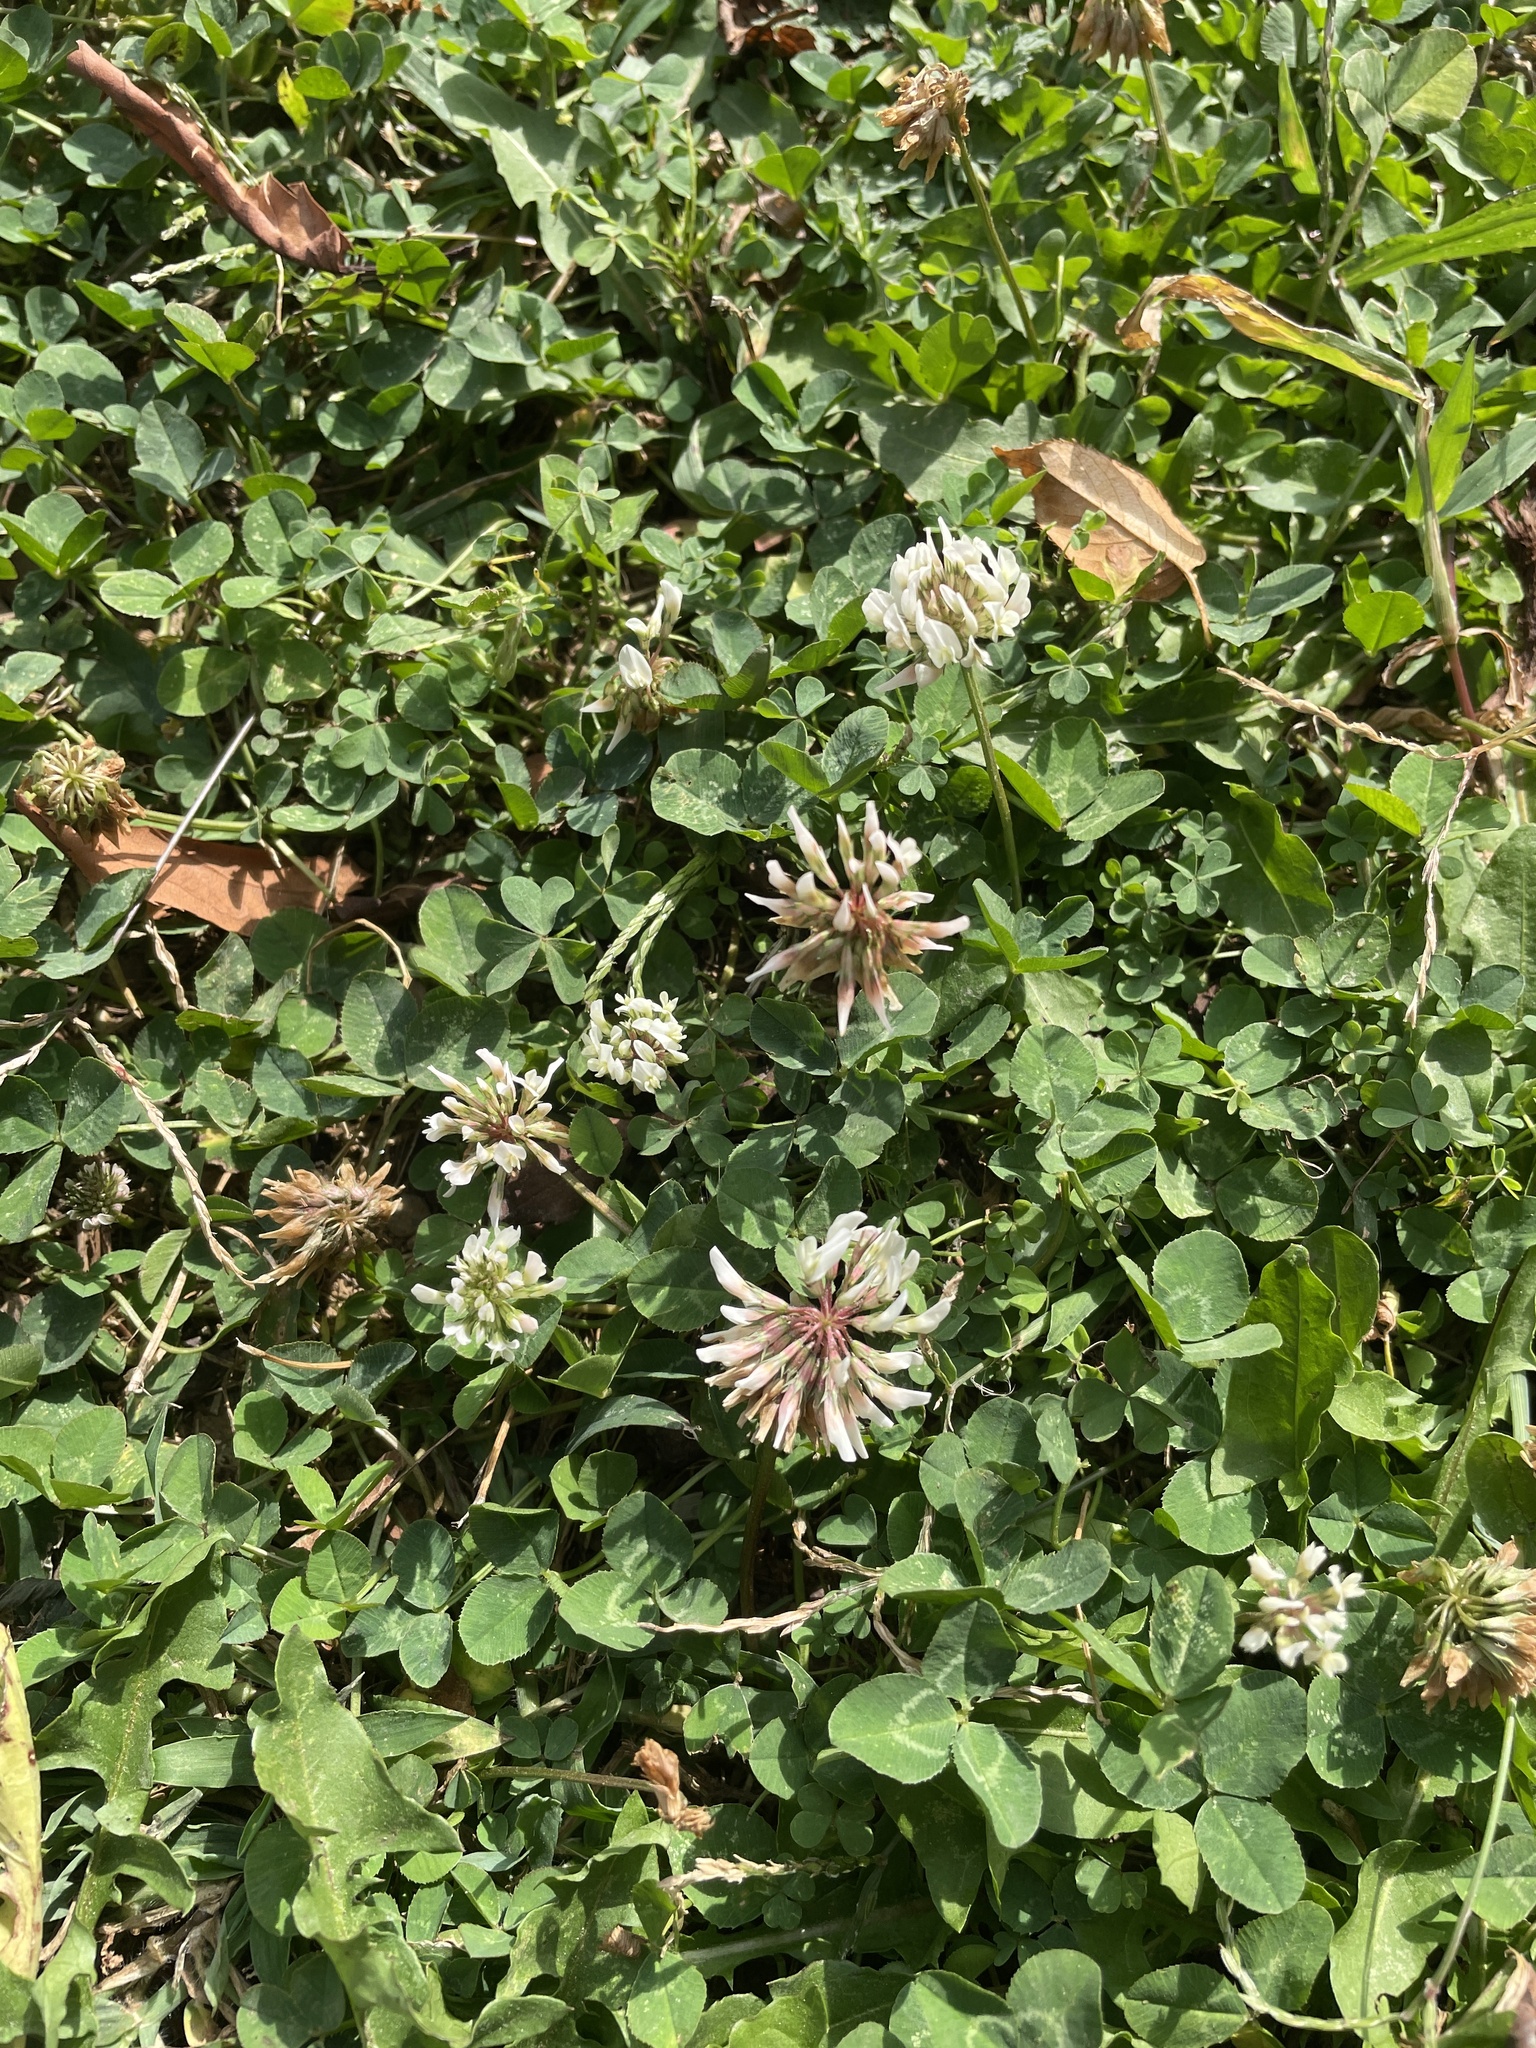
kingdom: Plantae
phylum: Tracheophyta
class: Magnoliopsida
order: Fabales
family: Fabaceae
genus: Trifolium
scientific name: Trifolium repens
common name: White clover
